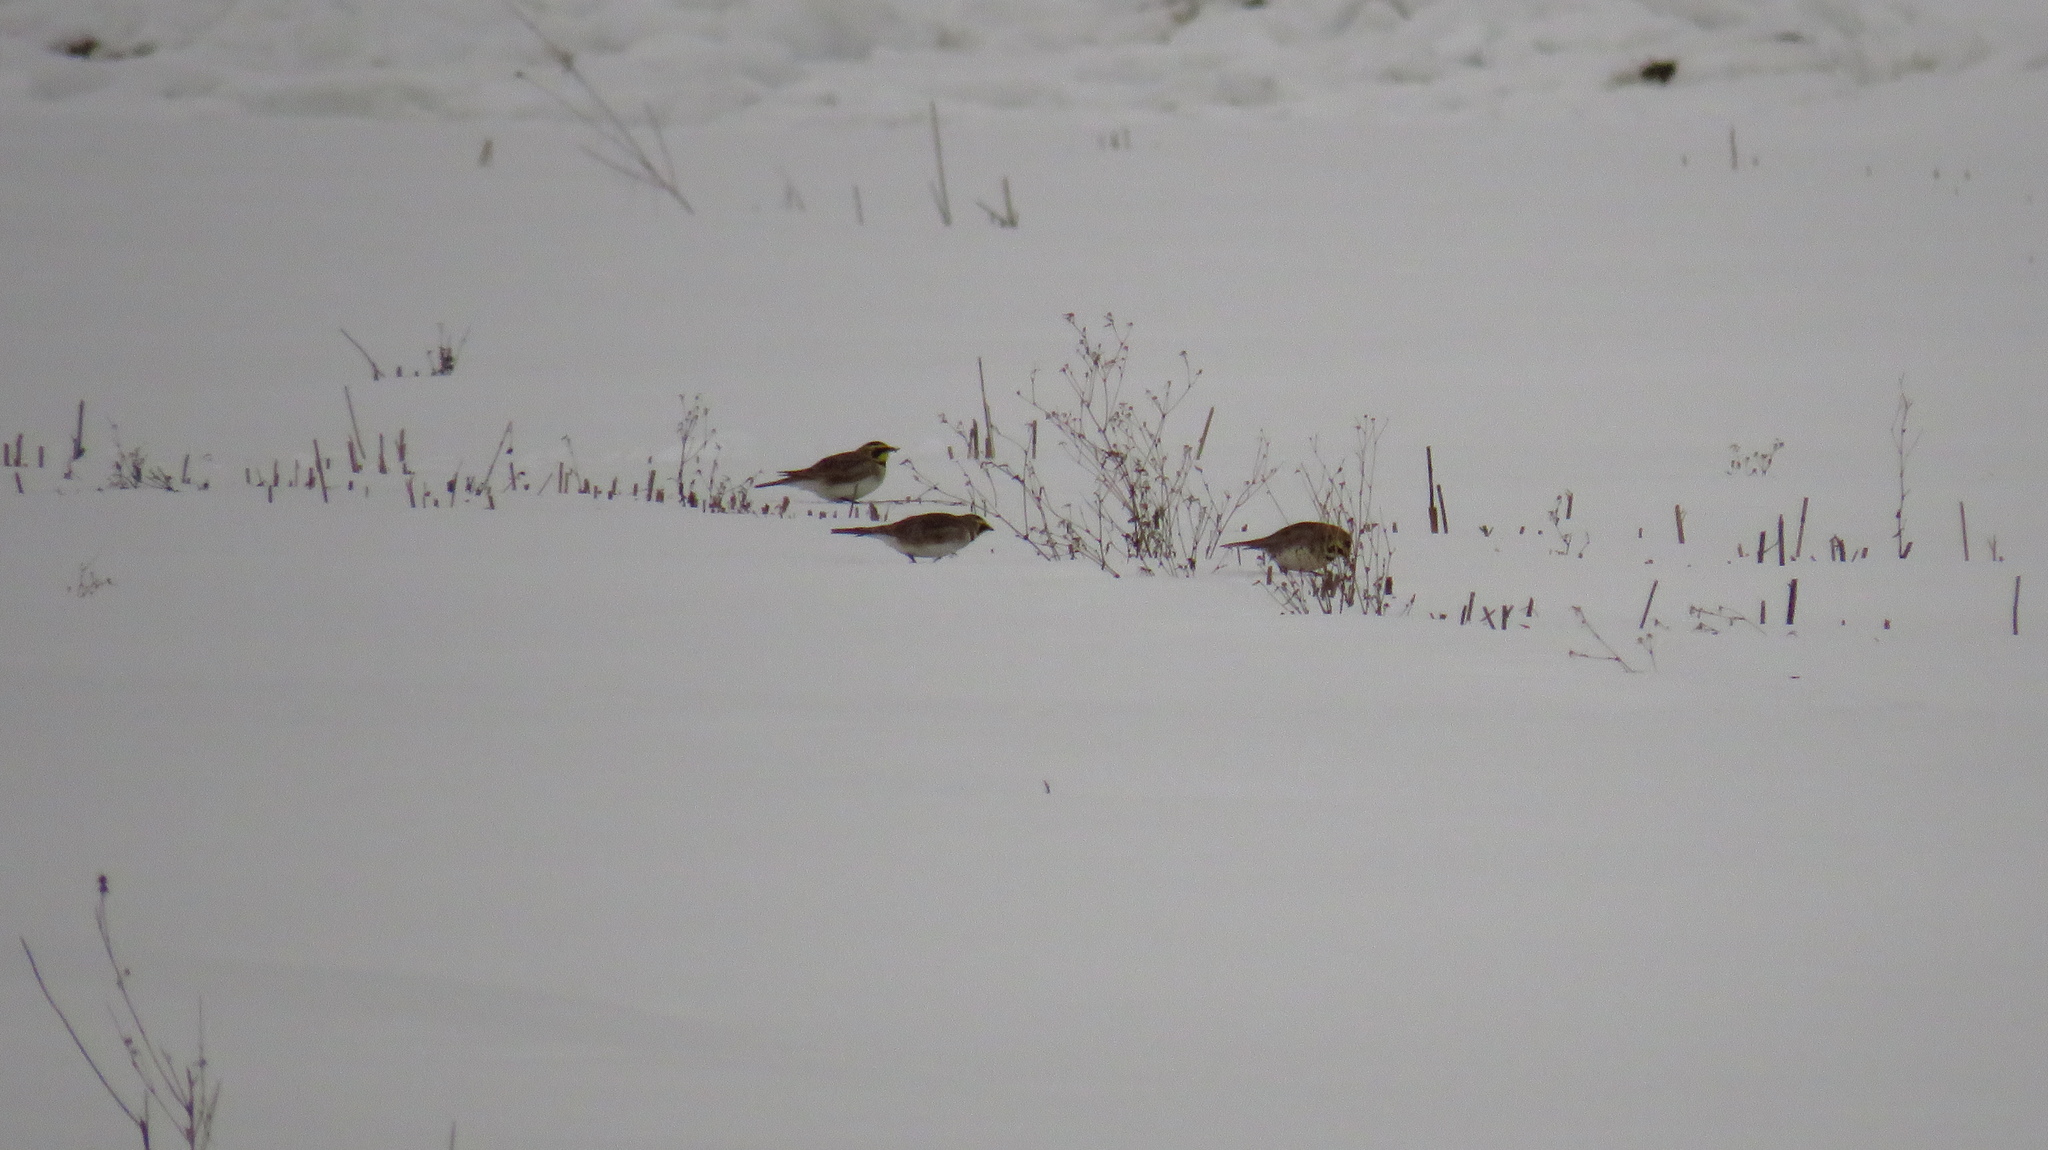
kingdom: Animalia
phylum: Chordata
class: Aves
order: Passeriformes
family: Alaudidae
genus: Eremophila
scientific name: Eremophila alpestris
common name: Horned lark
